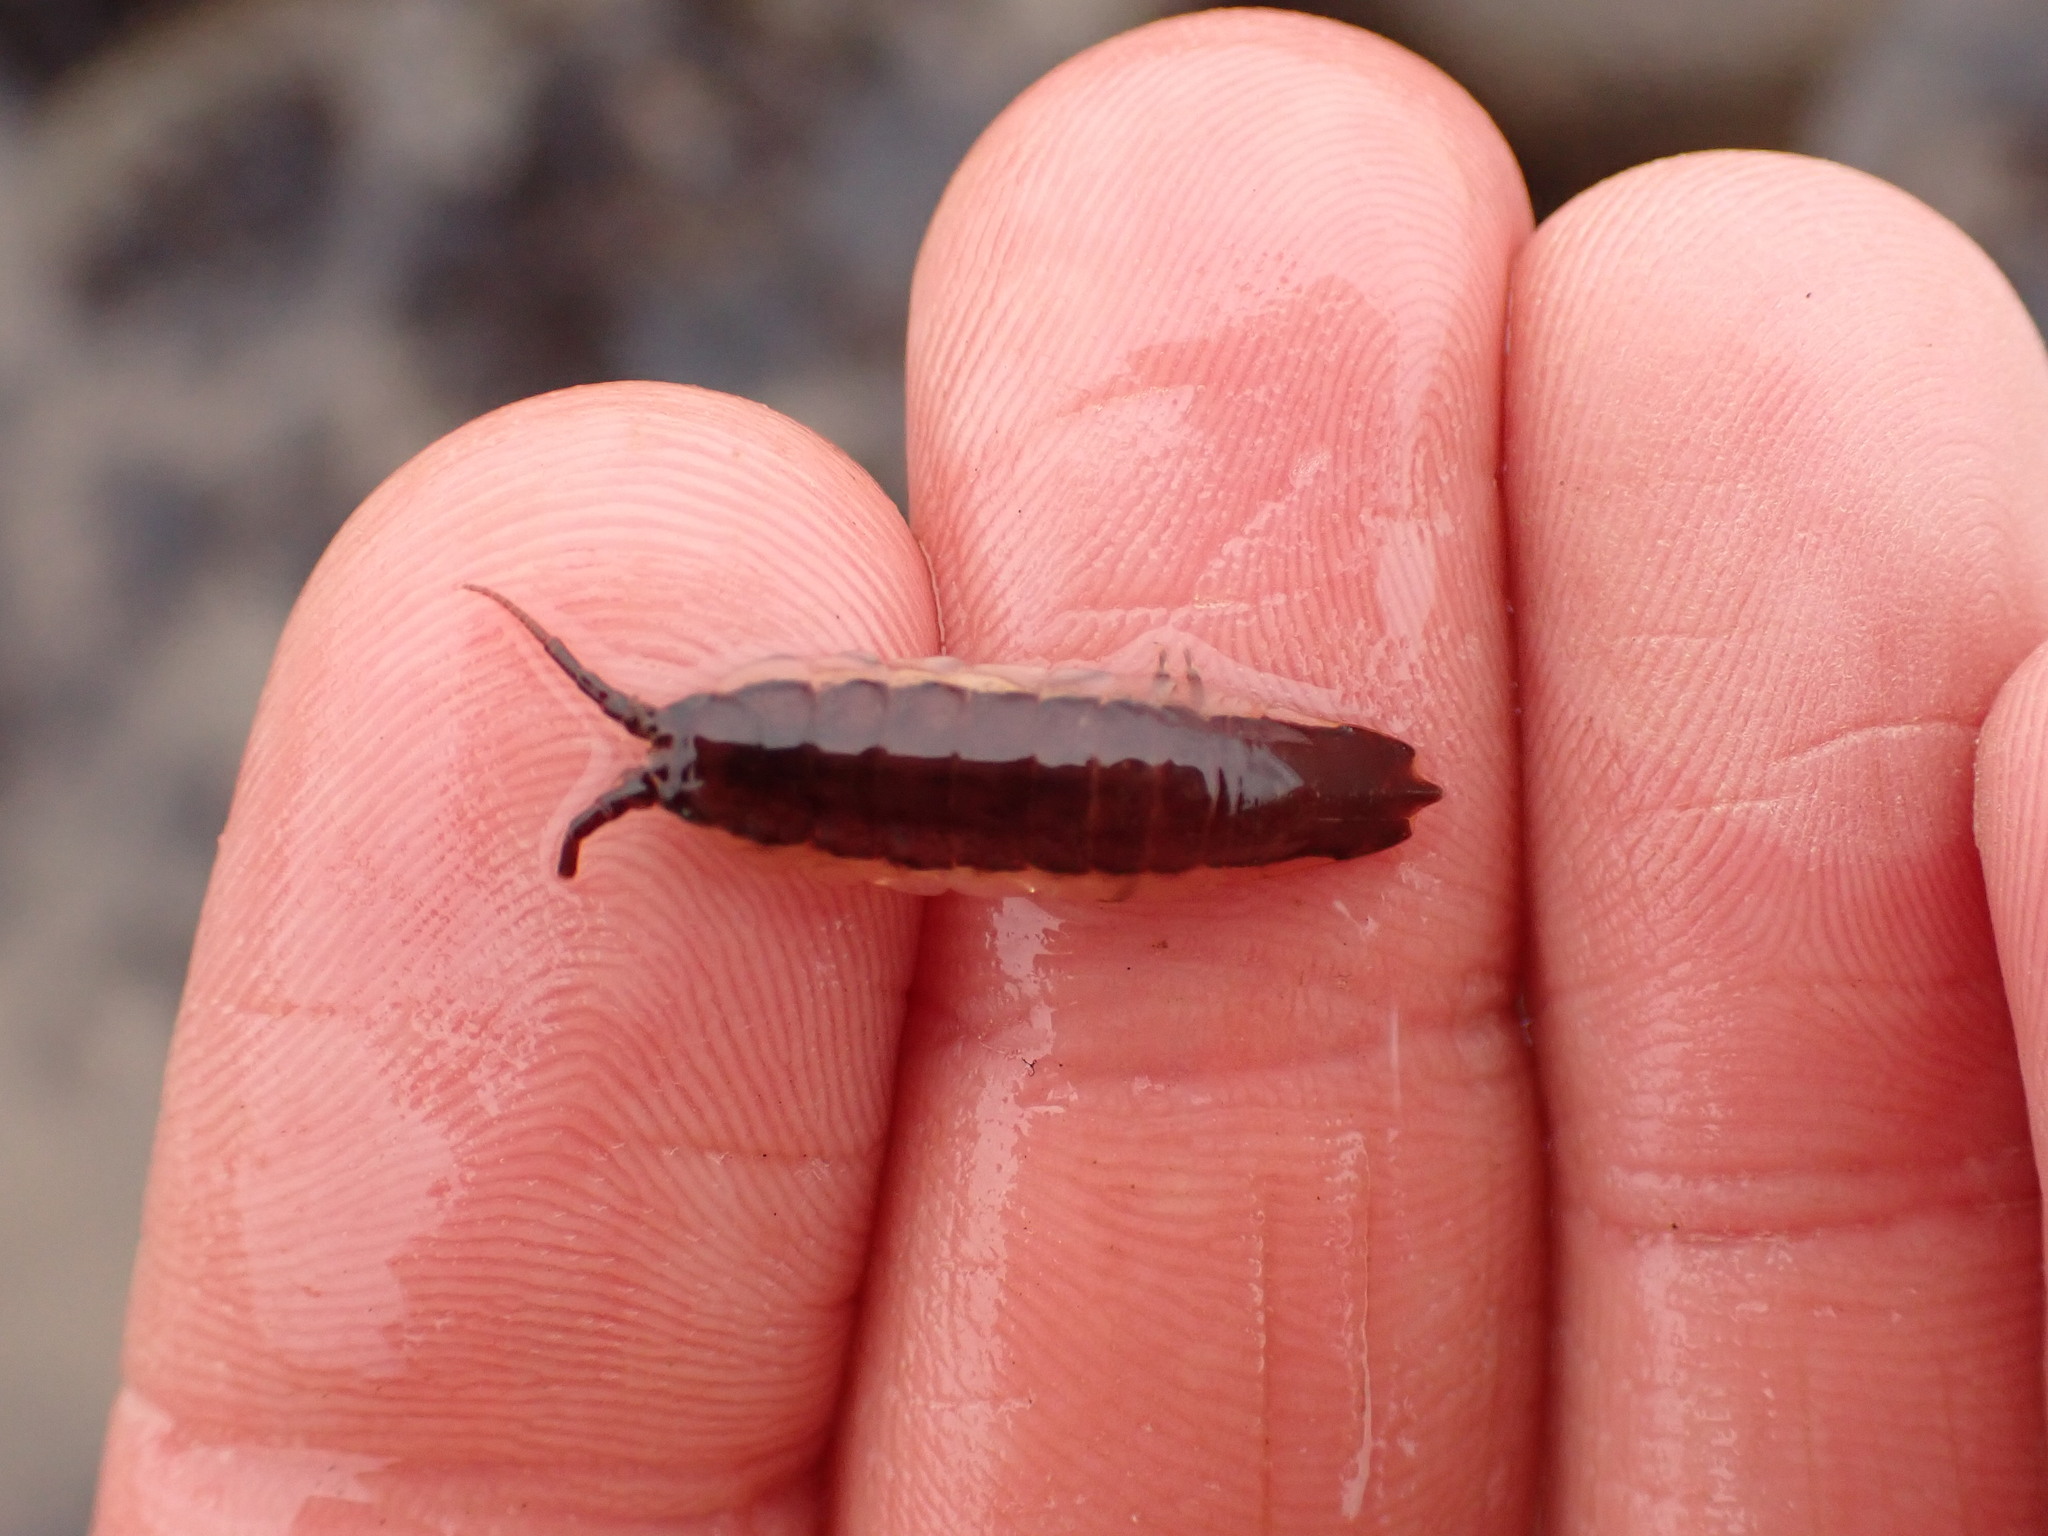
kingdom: Animalia
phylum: Arthropoda
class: Malacostraca
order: Isopoda
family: Idoteidae
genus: Idotea
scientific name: Idotea balthica
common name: Baltic isopod
